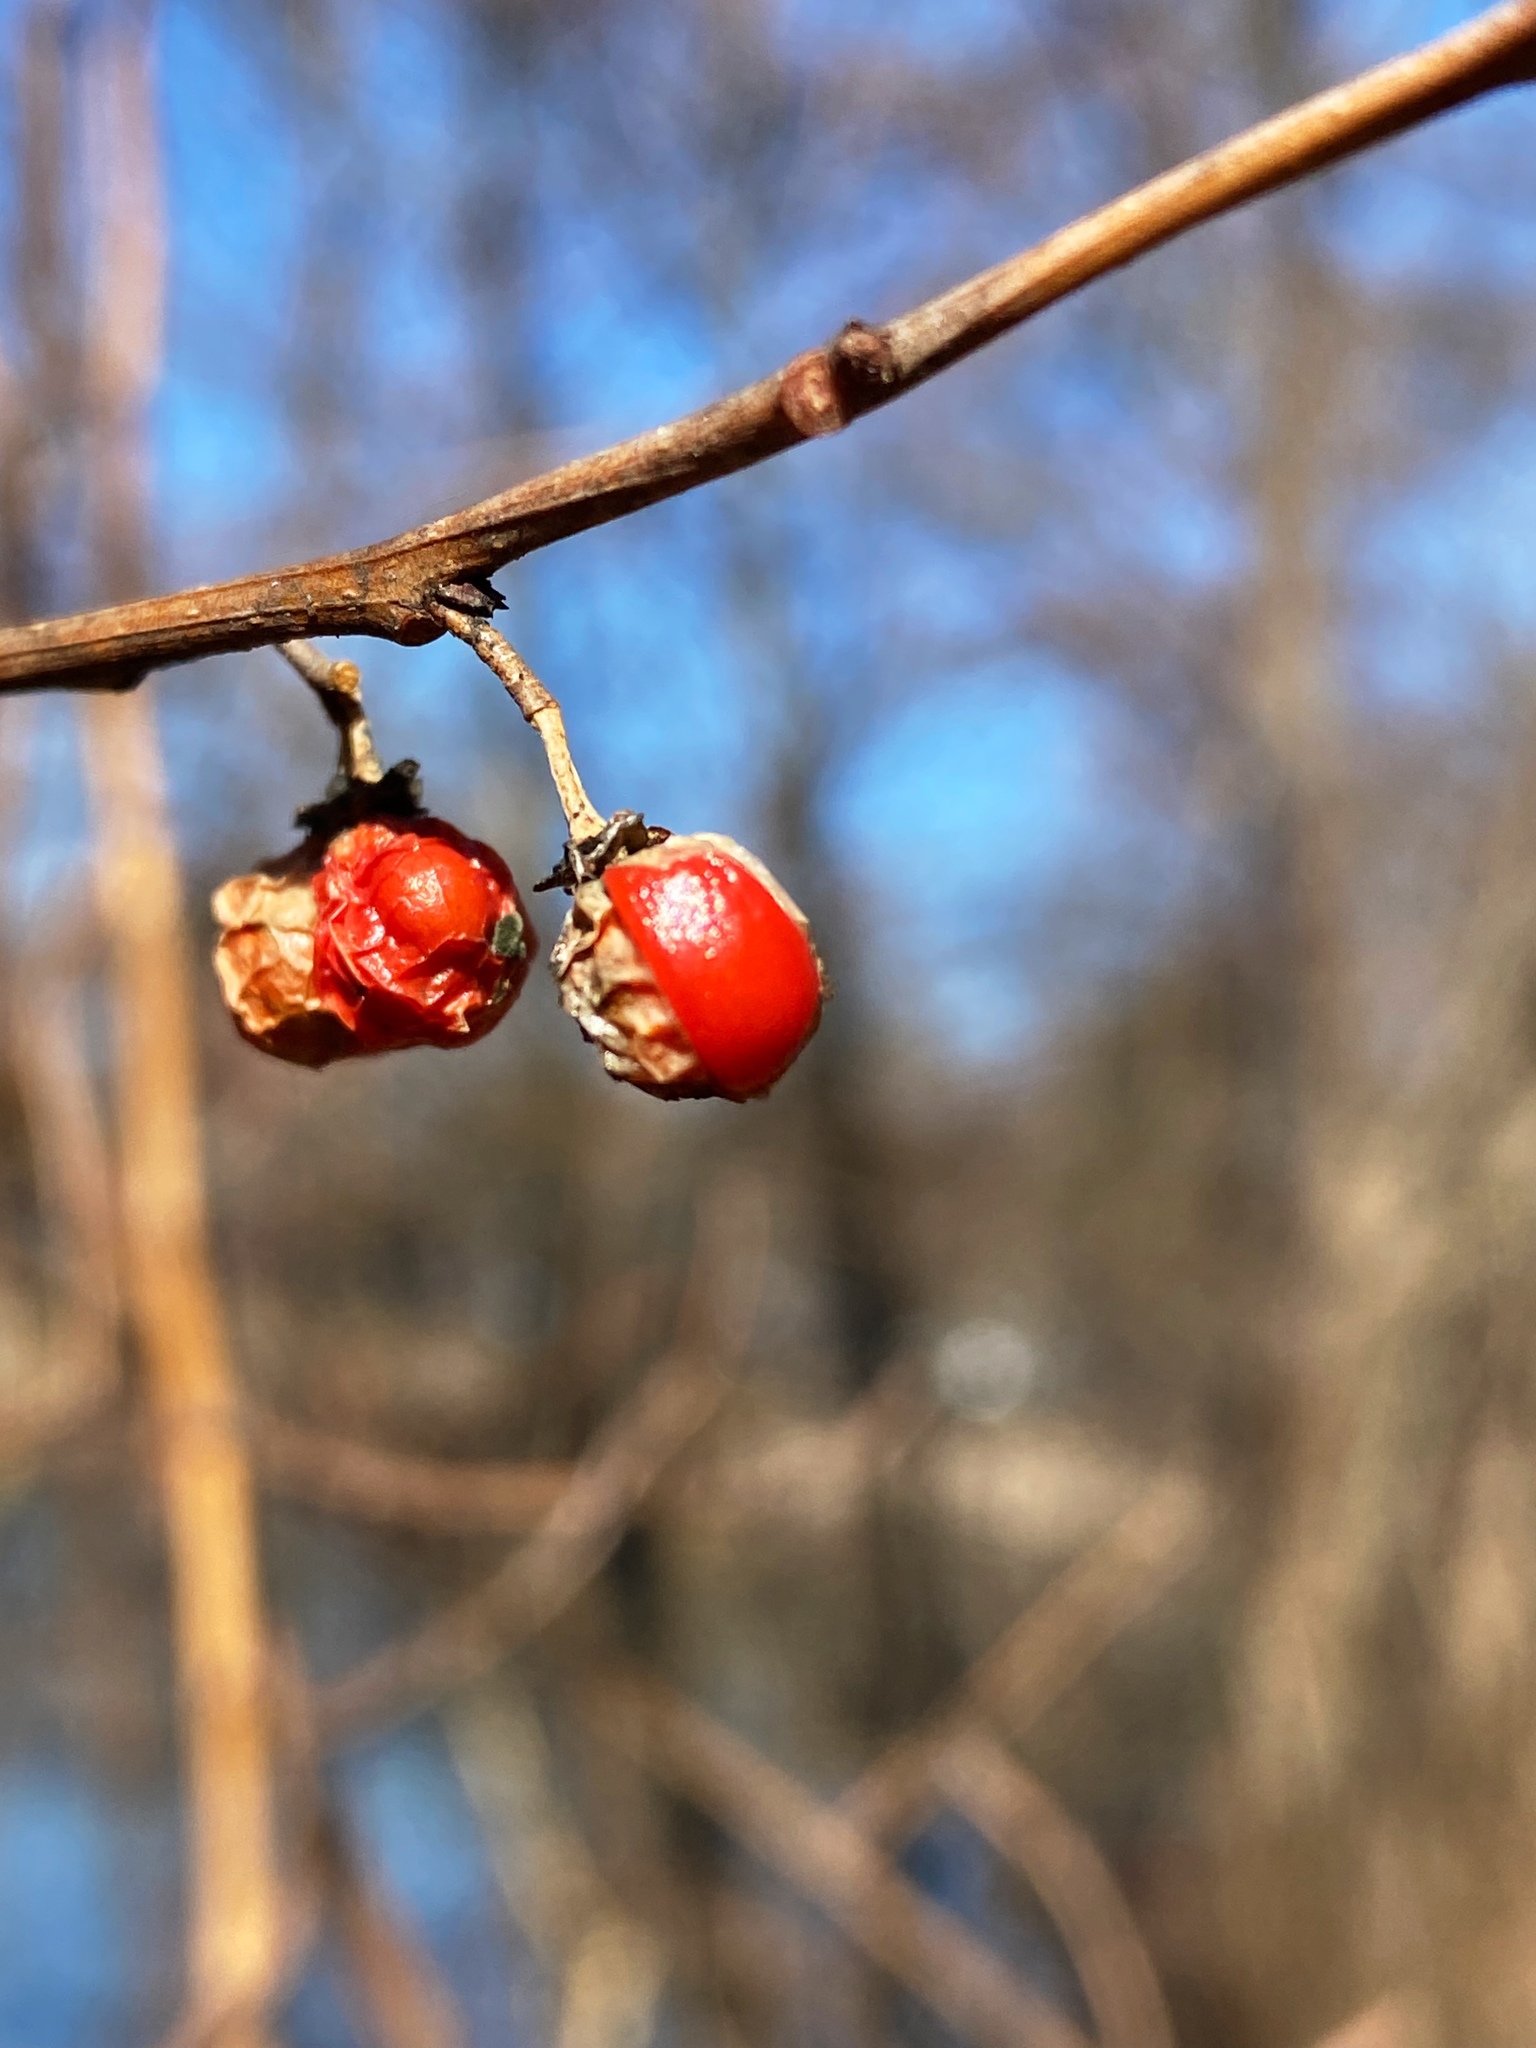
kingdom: Plantae
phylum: Tracheophyta
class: Magnoliopsida
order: Celastrales
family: Celastraceae
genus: Celastrus
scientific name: Celastrus orbiculatus
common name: Oriental bittersweet
